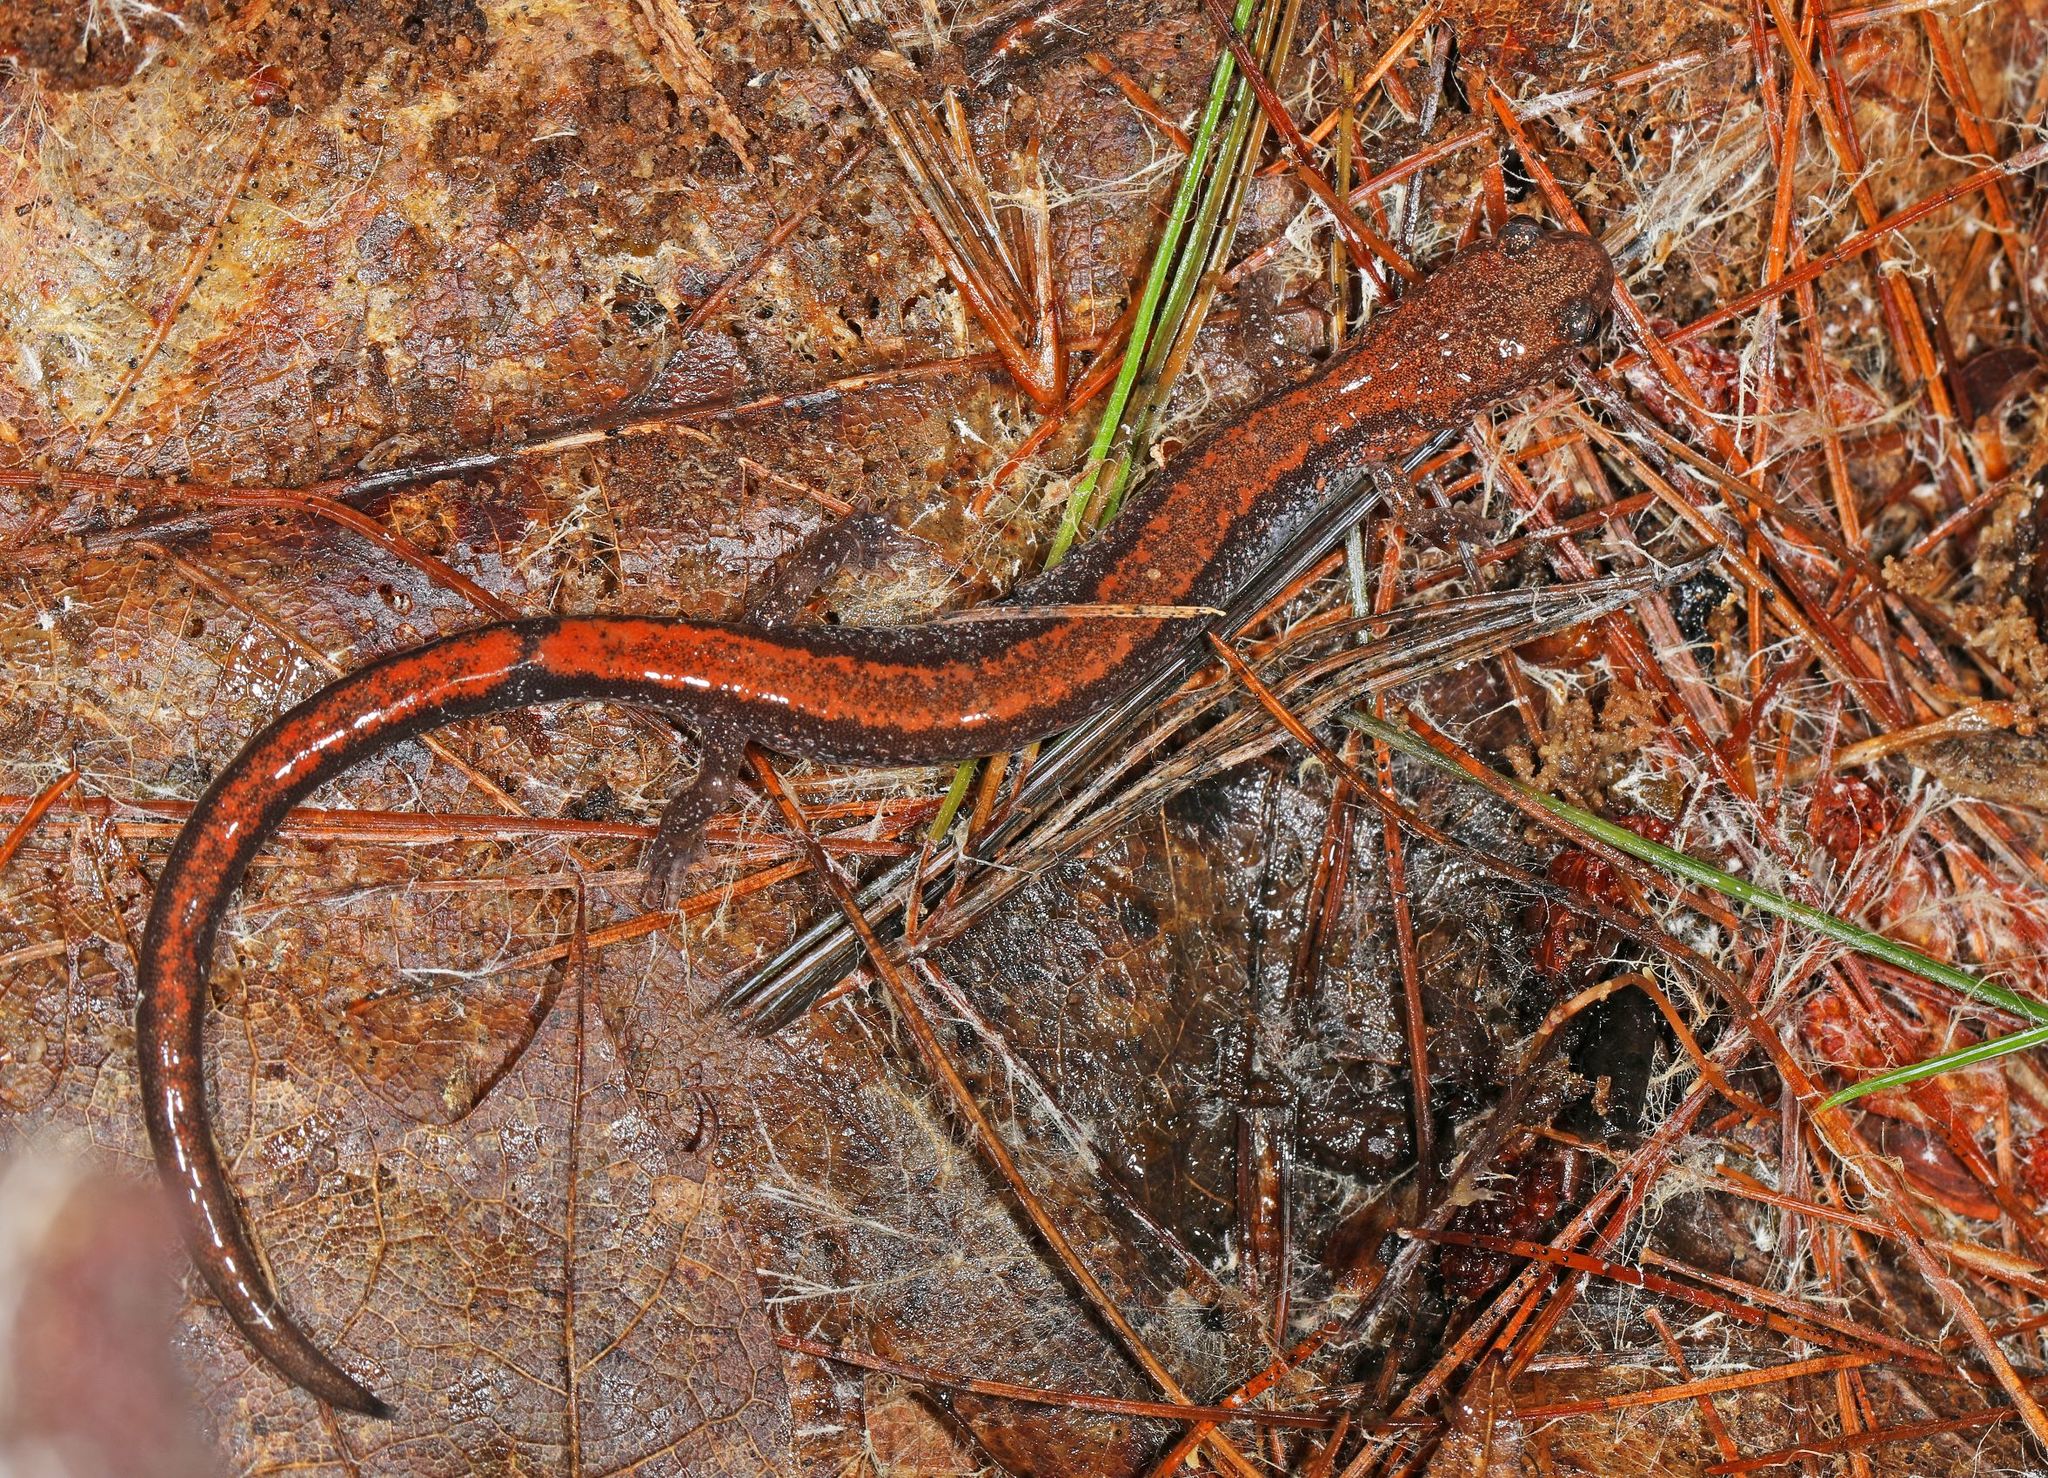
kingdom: Animalia
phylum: Chordata
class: Amphibia
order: Caudata
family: Plethodontidae
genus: Plethodon
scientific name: Plethodon cinereus
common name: Redback salamander
